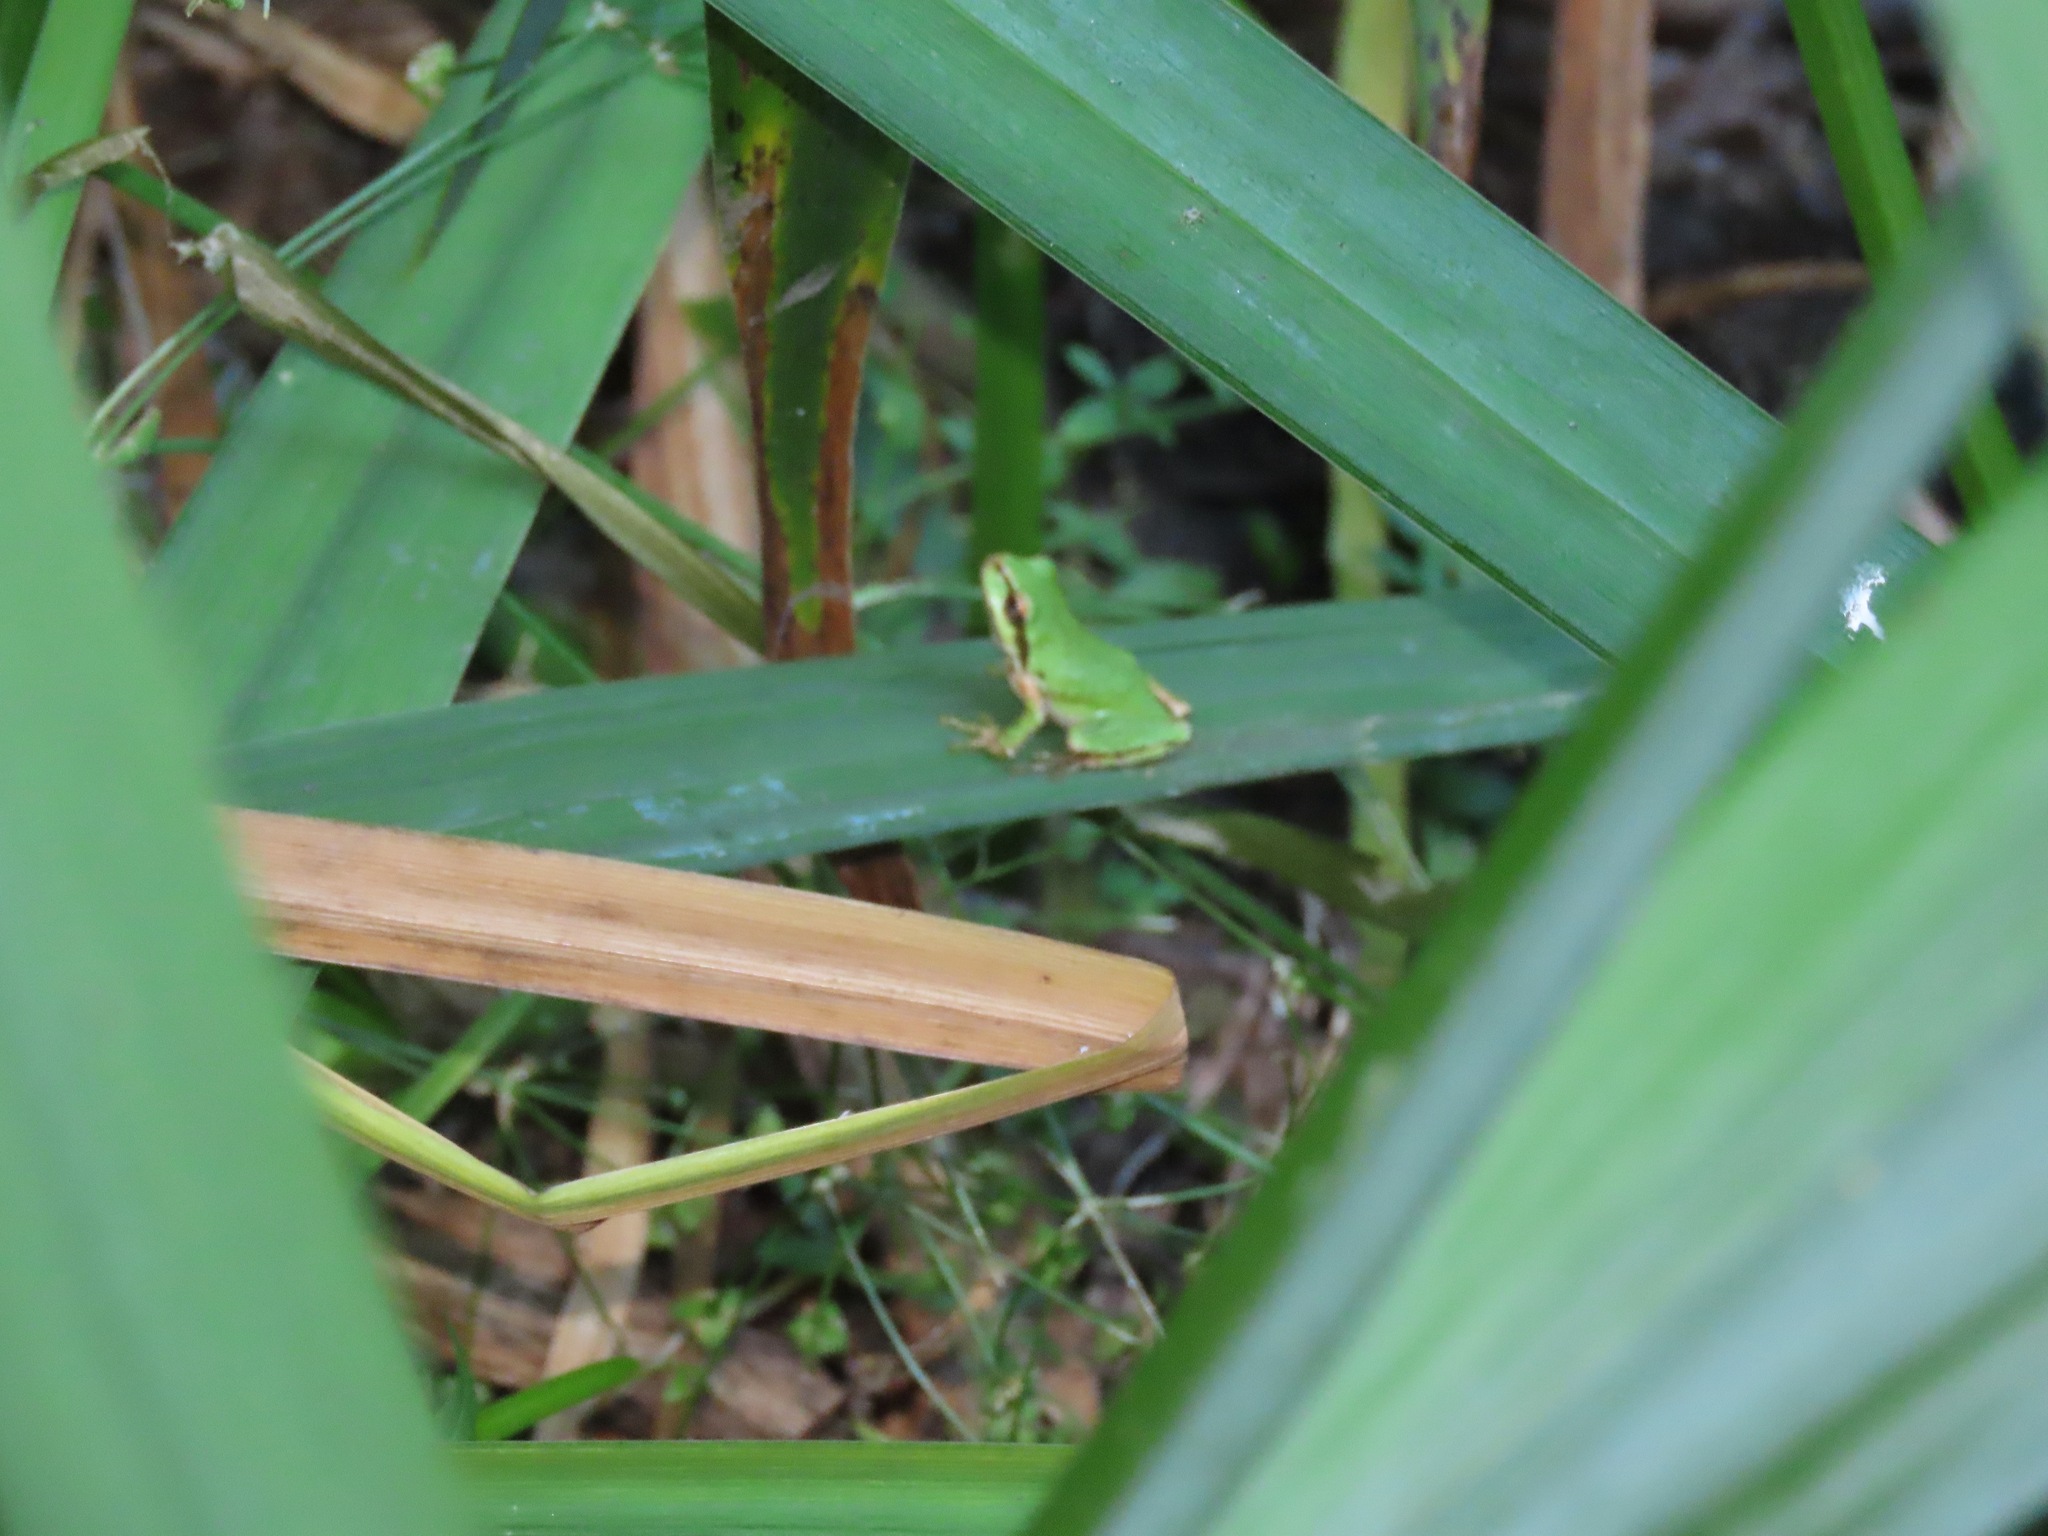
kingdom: Animalia
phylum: Chordata
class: Amphibia
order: Anura
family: Hylidae
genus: Pseudacris
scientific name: Pseudacris regilla
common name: Pacific chorus frog
